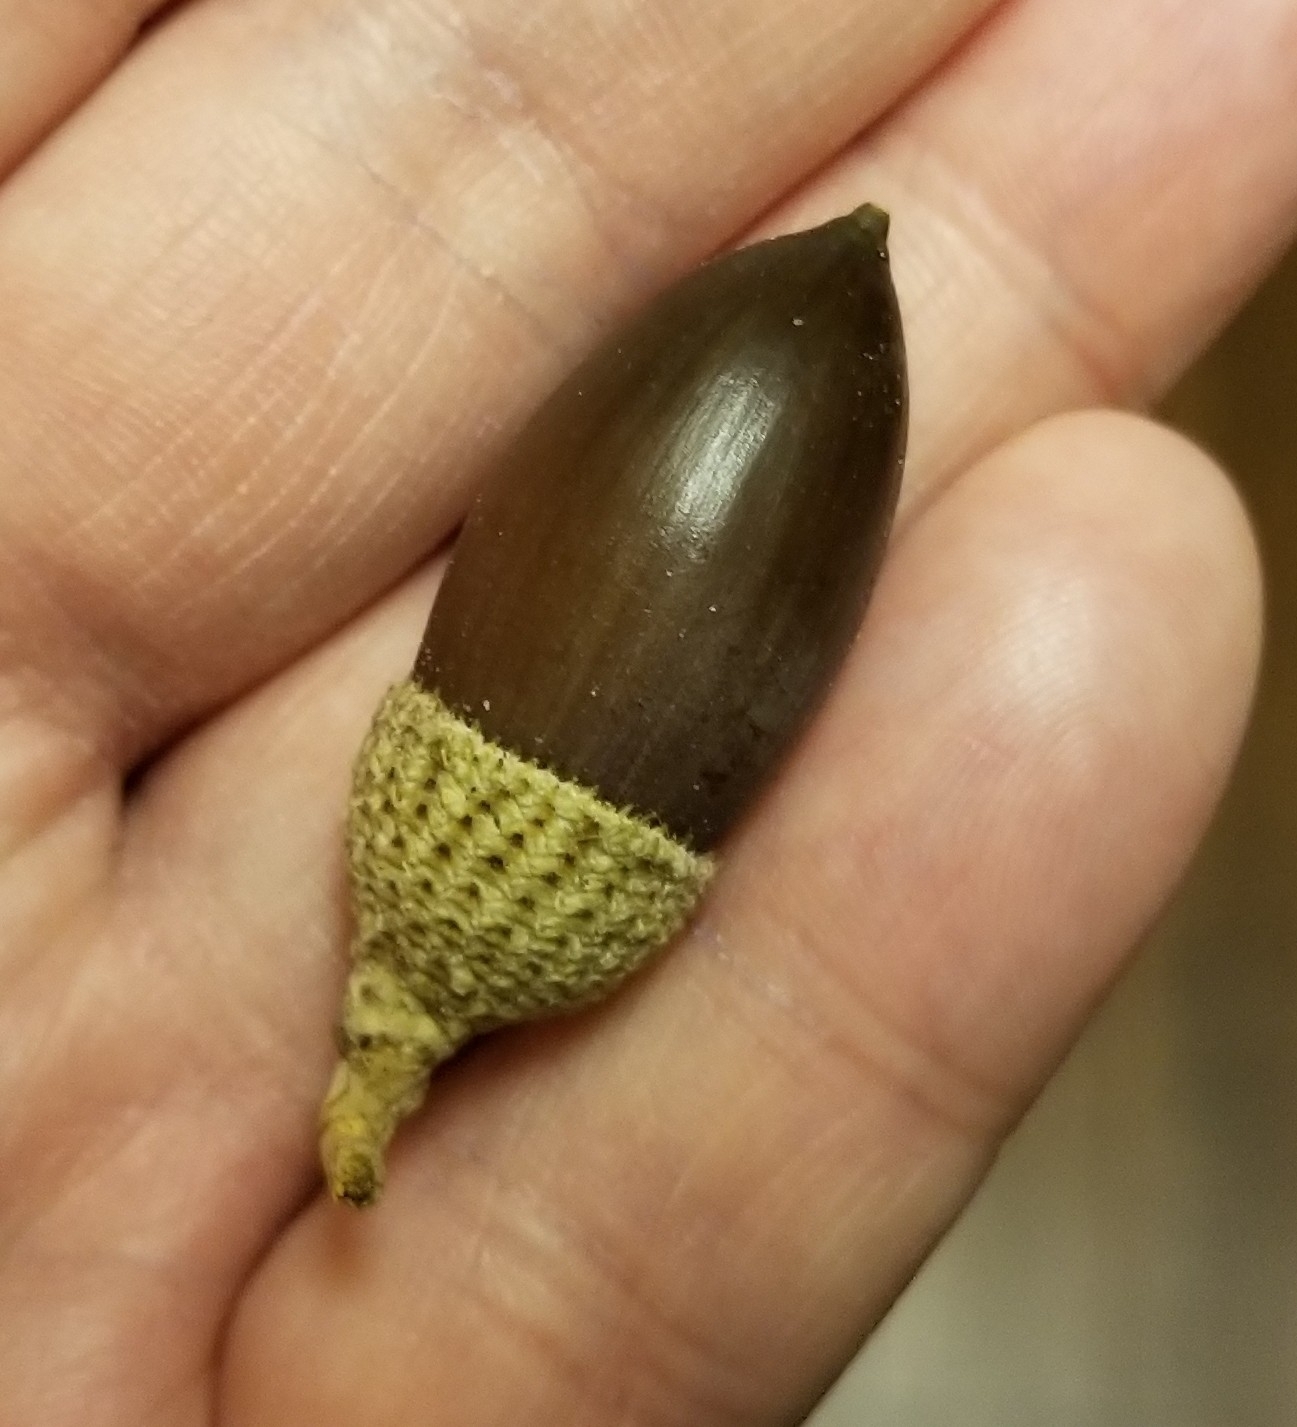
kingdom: Plantae
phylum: Tracheophyta
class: Magnoliopsida
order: Fagales
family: Fagaceae
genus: Quercus
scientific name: Quercus fusiformis
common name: Texas live oak
